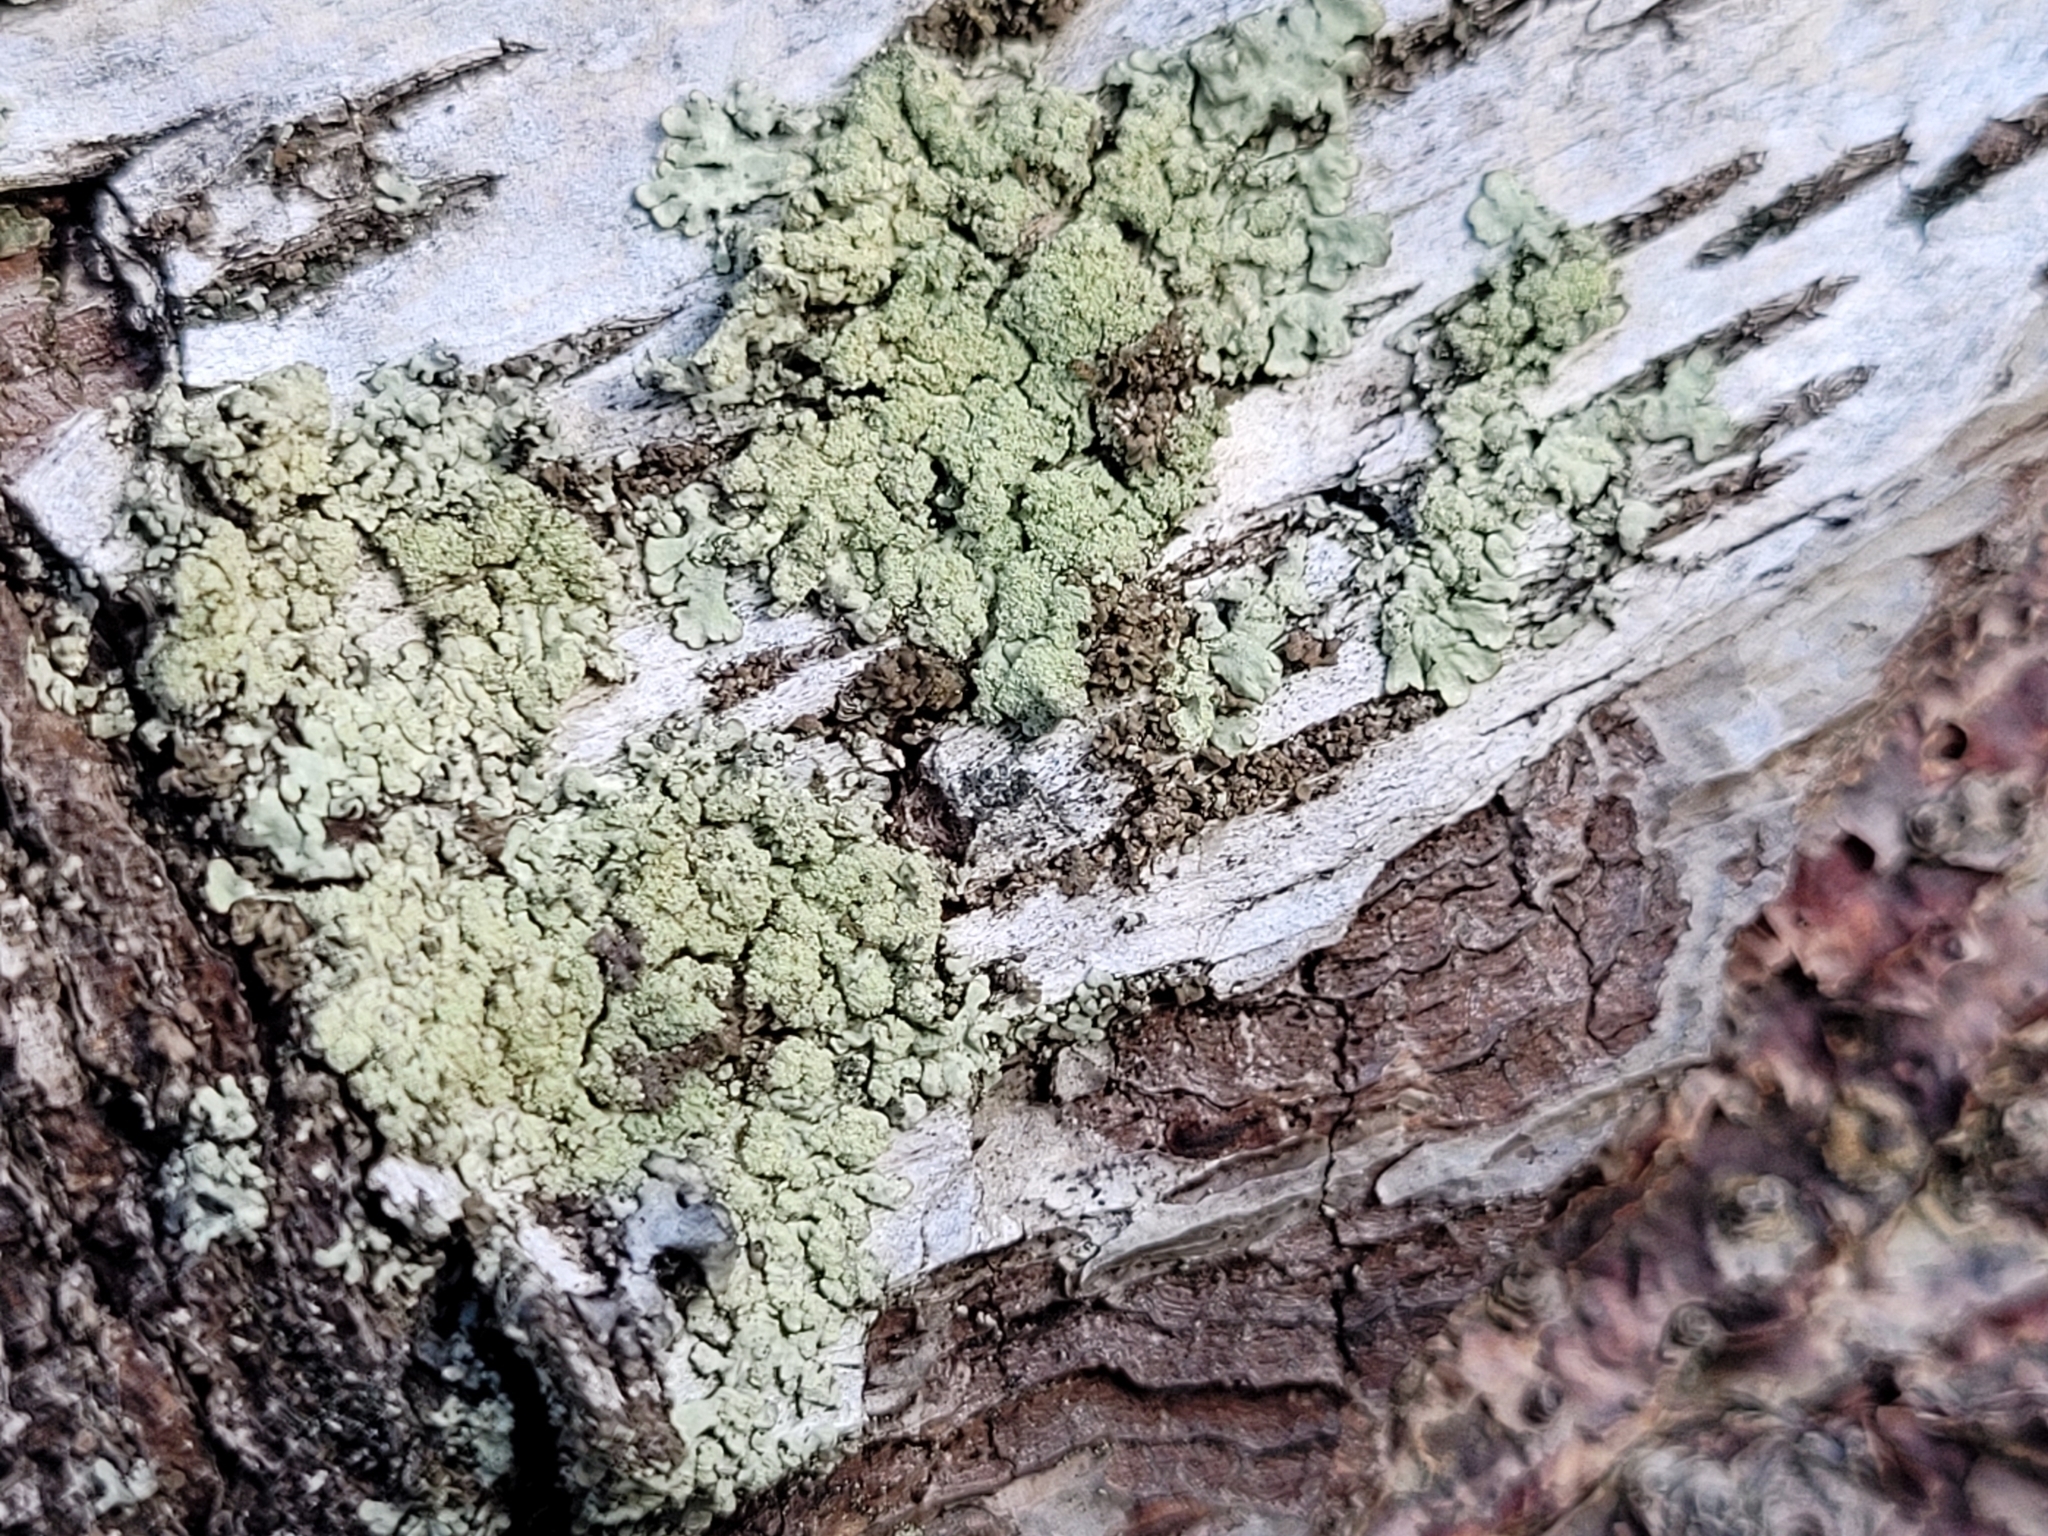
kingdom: Fungi
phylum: Ascomycota
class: Lecanoromycetes
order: Lecanorales
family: Parmeliaceae
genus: Parmeliopsis
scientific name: Parmeliopsis ambigua
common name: Green starburst lichen
